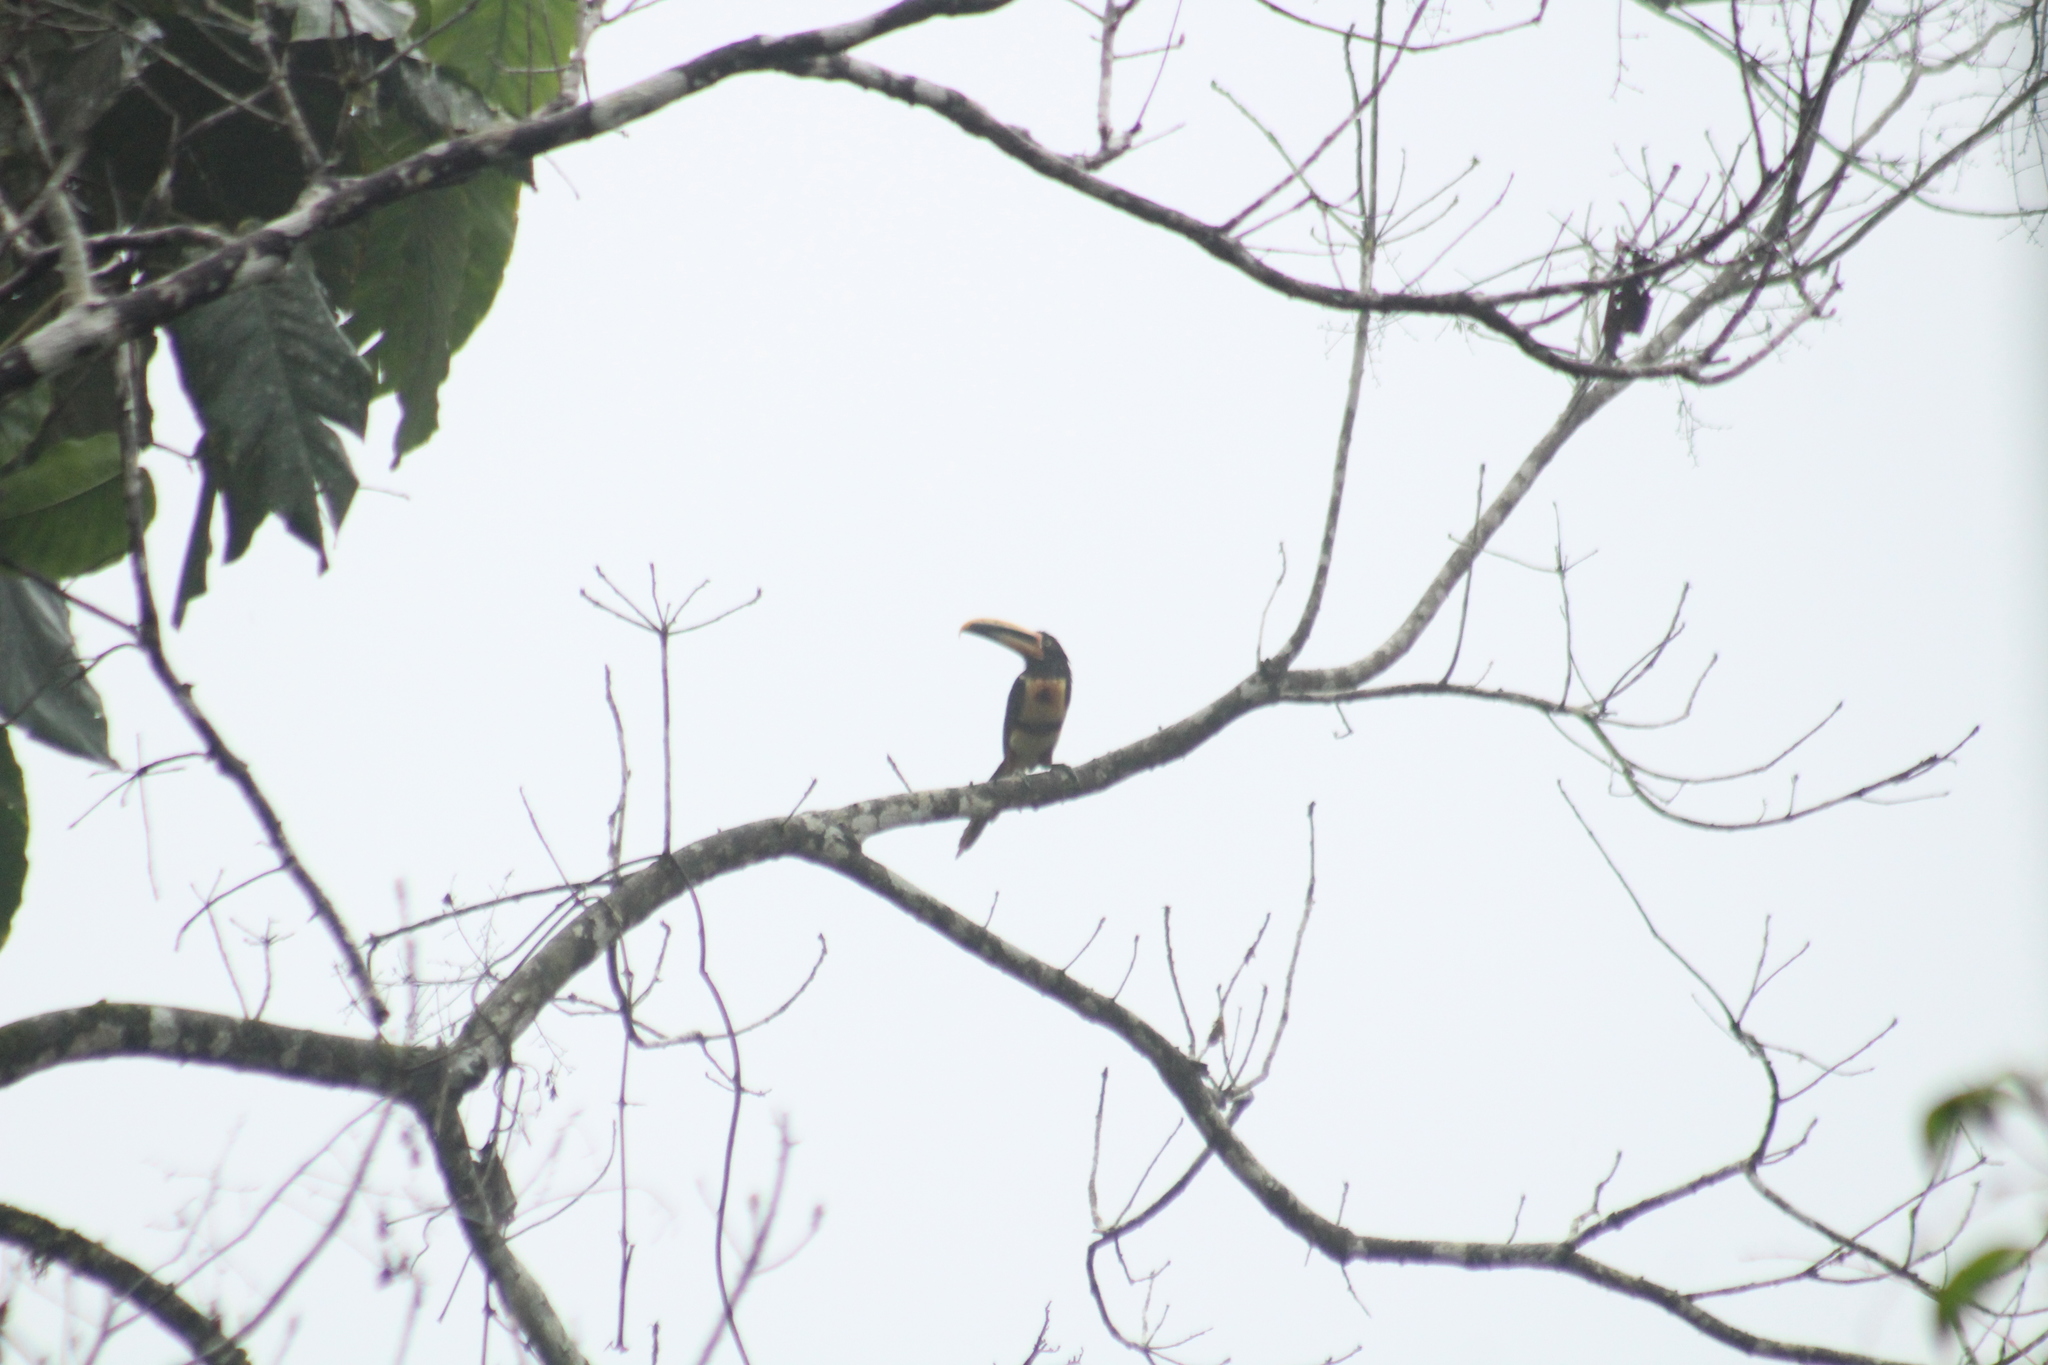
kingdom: Animalia
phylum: Chordata
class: Aves
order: Piciformes
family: Ramphastidae
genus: Pteroglossus
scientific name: Pteroglossus torquatus
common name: Collared aracari
